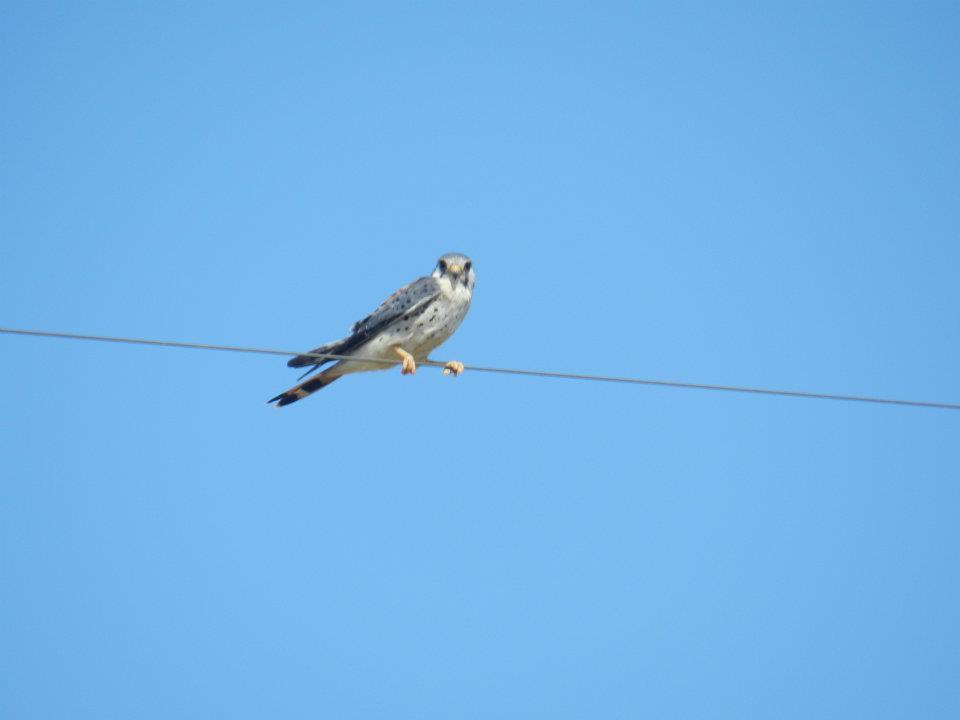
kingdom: Animalia
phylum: Chordata
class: Aves
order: Falconiformes
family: Falconidae
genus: Falco
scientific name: Falco sparverius
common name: American kestrel
